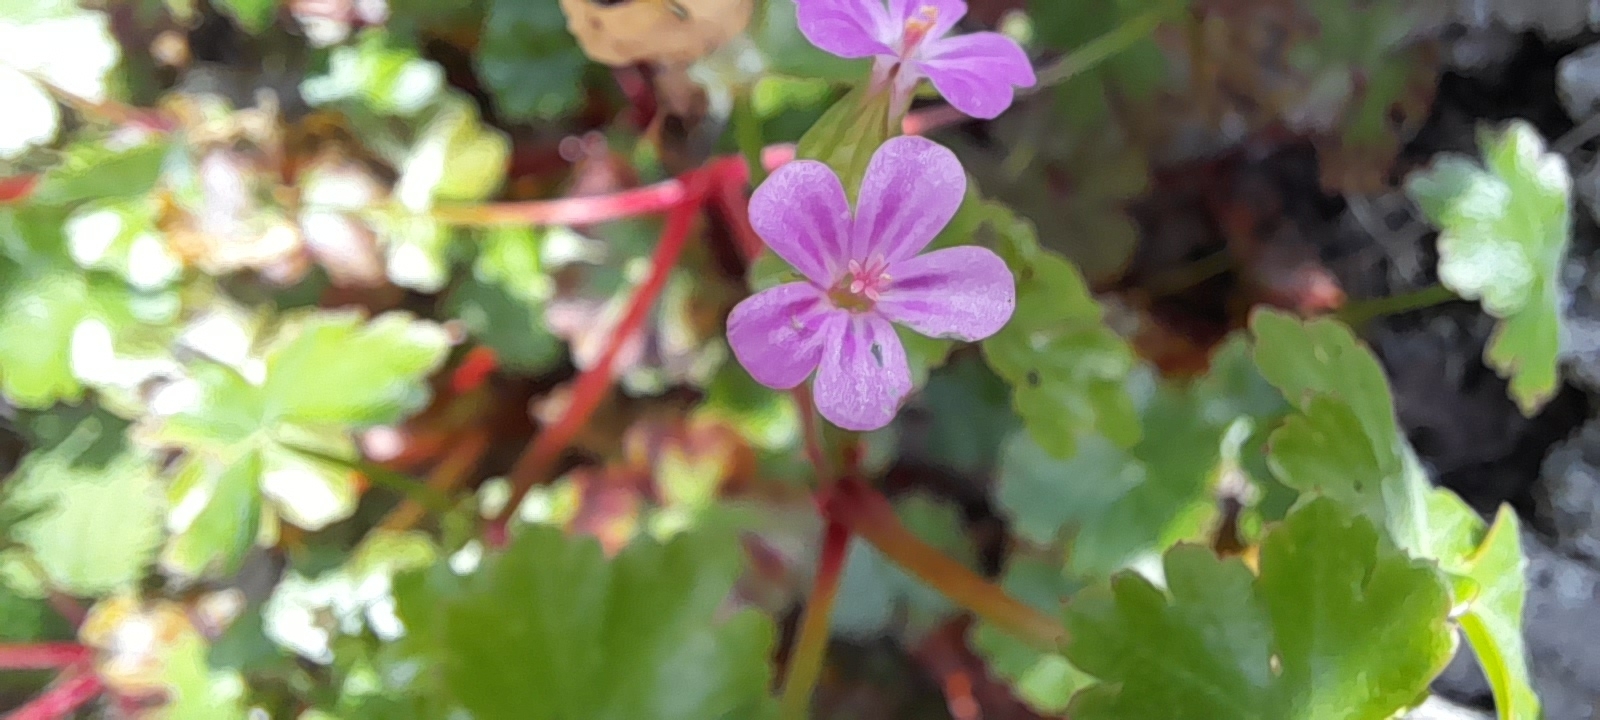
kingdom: Plantae
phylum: Tracheophyta
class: Magnoliopsida
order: Geraniales
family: Geraniaceae
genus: Geranium
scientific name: Geranium lucidum
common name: Shining crane's-bill
